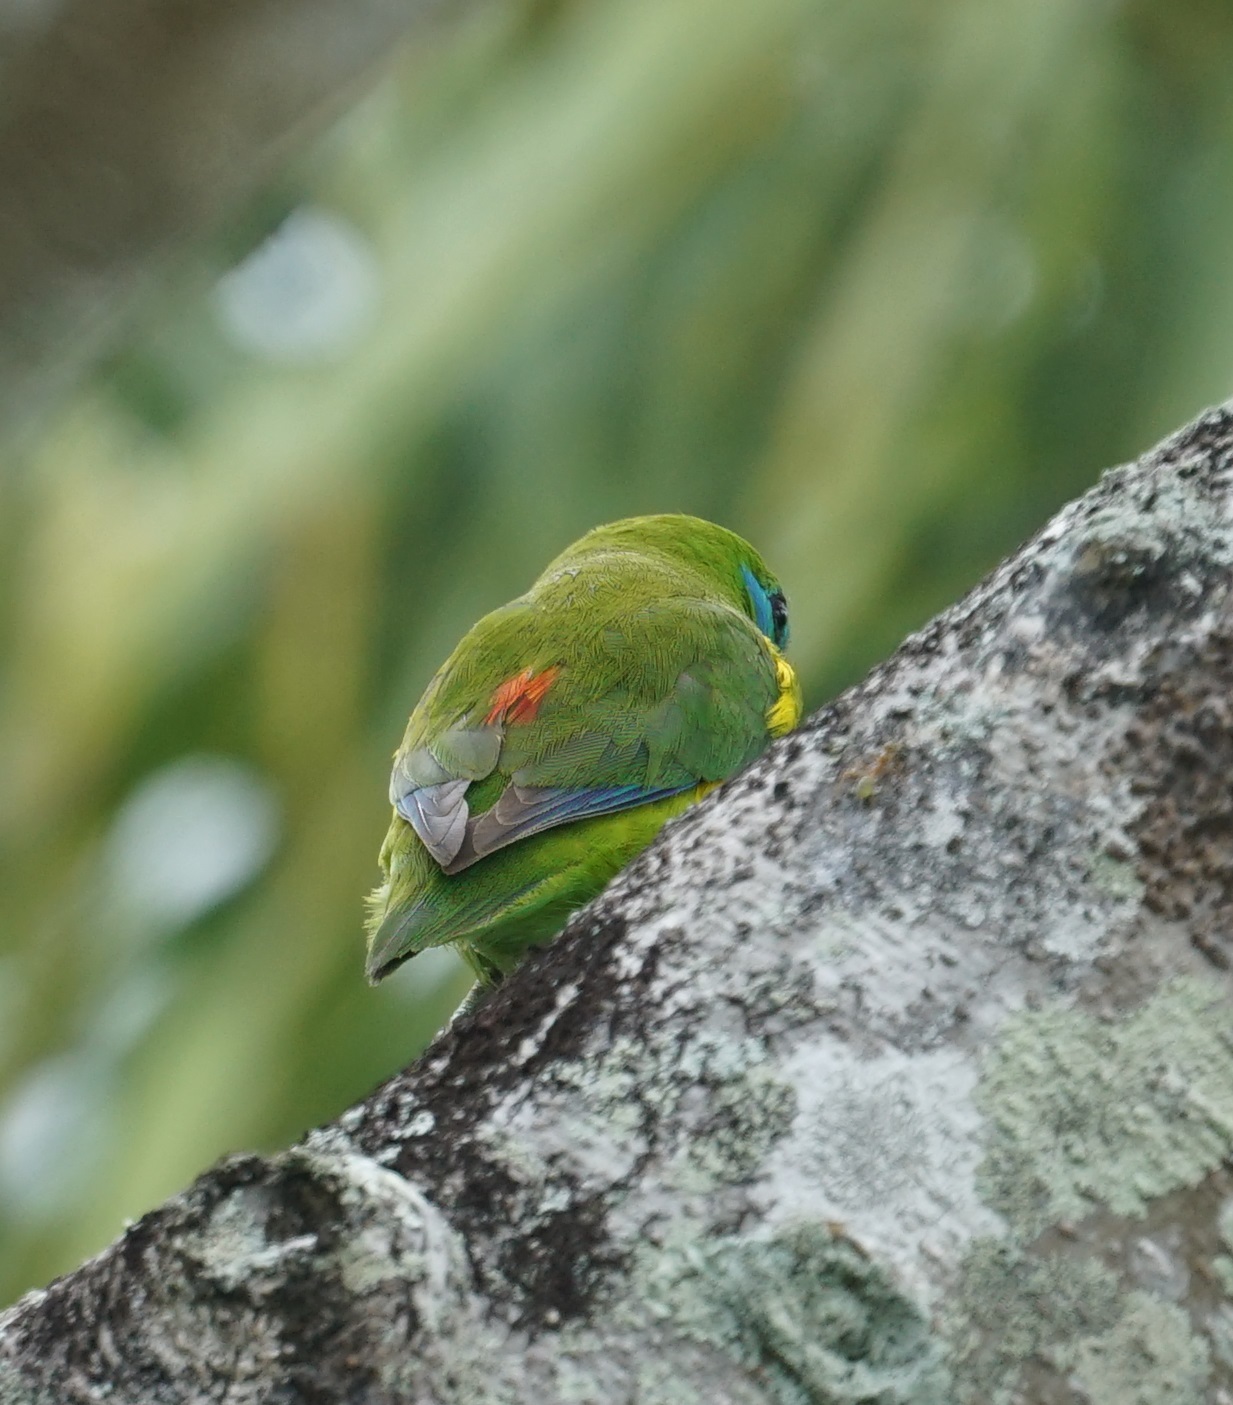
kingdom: Animalia
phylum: Chordata
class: Aves
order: Psittaciformes
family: Psittacidae
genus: Cyclopsitta
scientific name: Cyclopsitta diophthalma
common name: Double-eyed fig parrot
